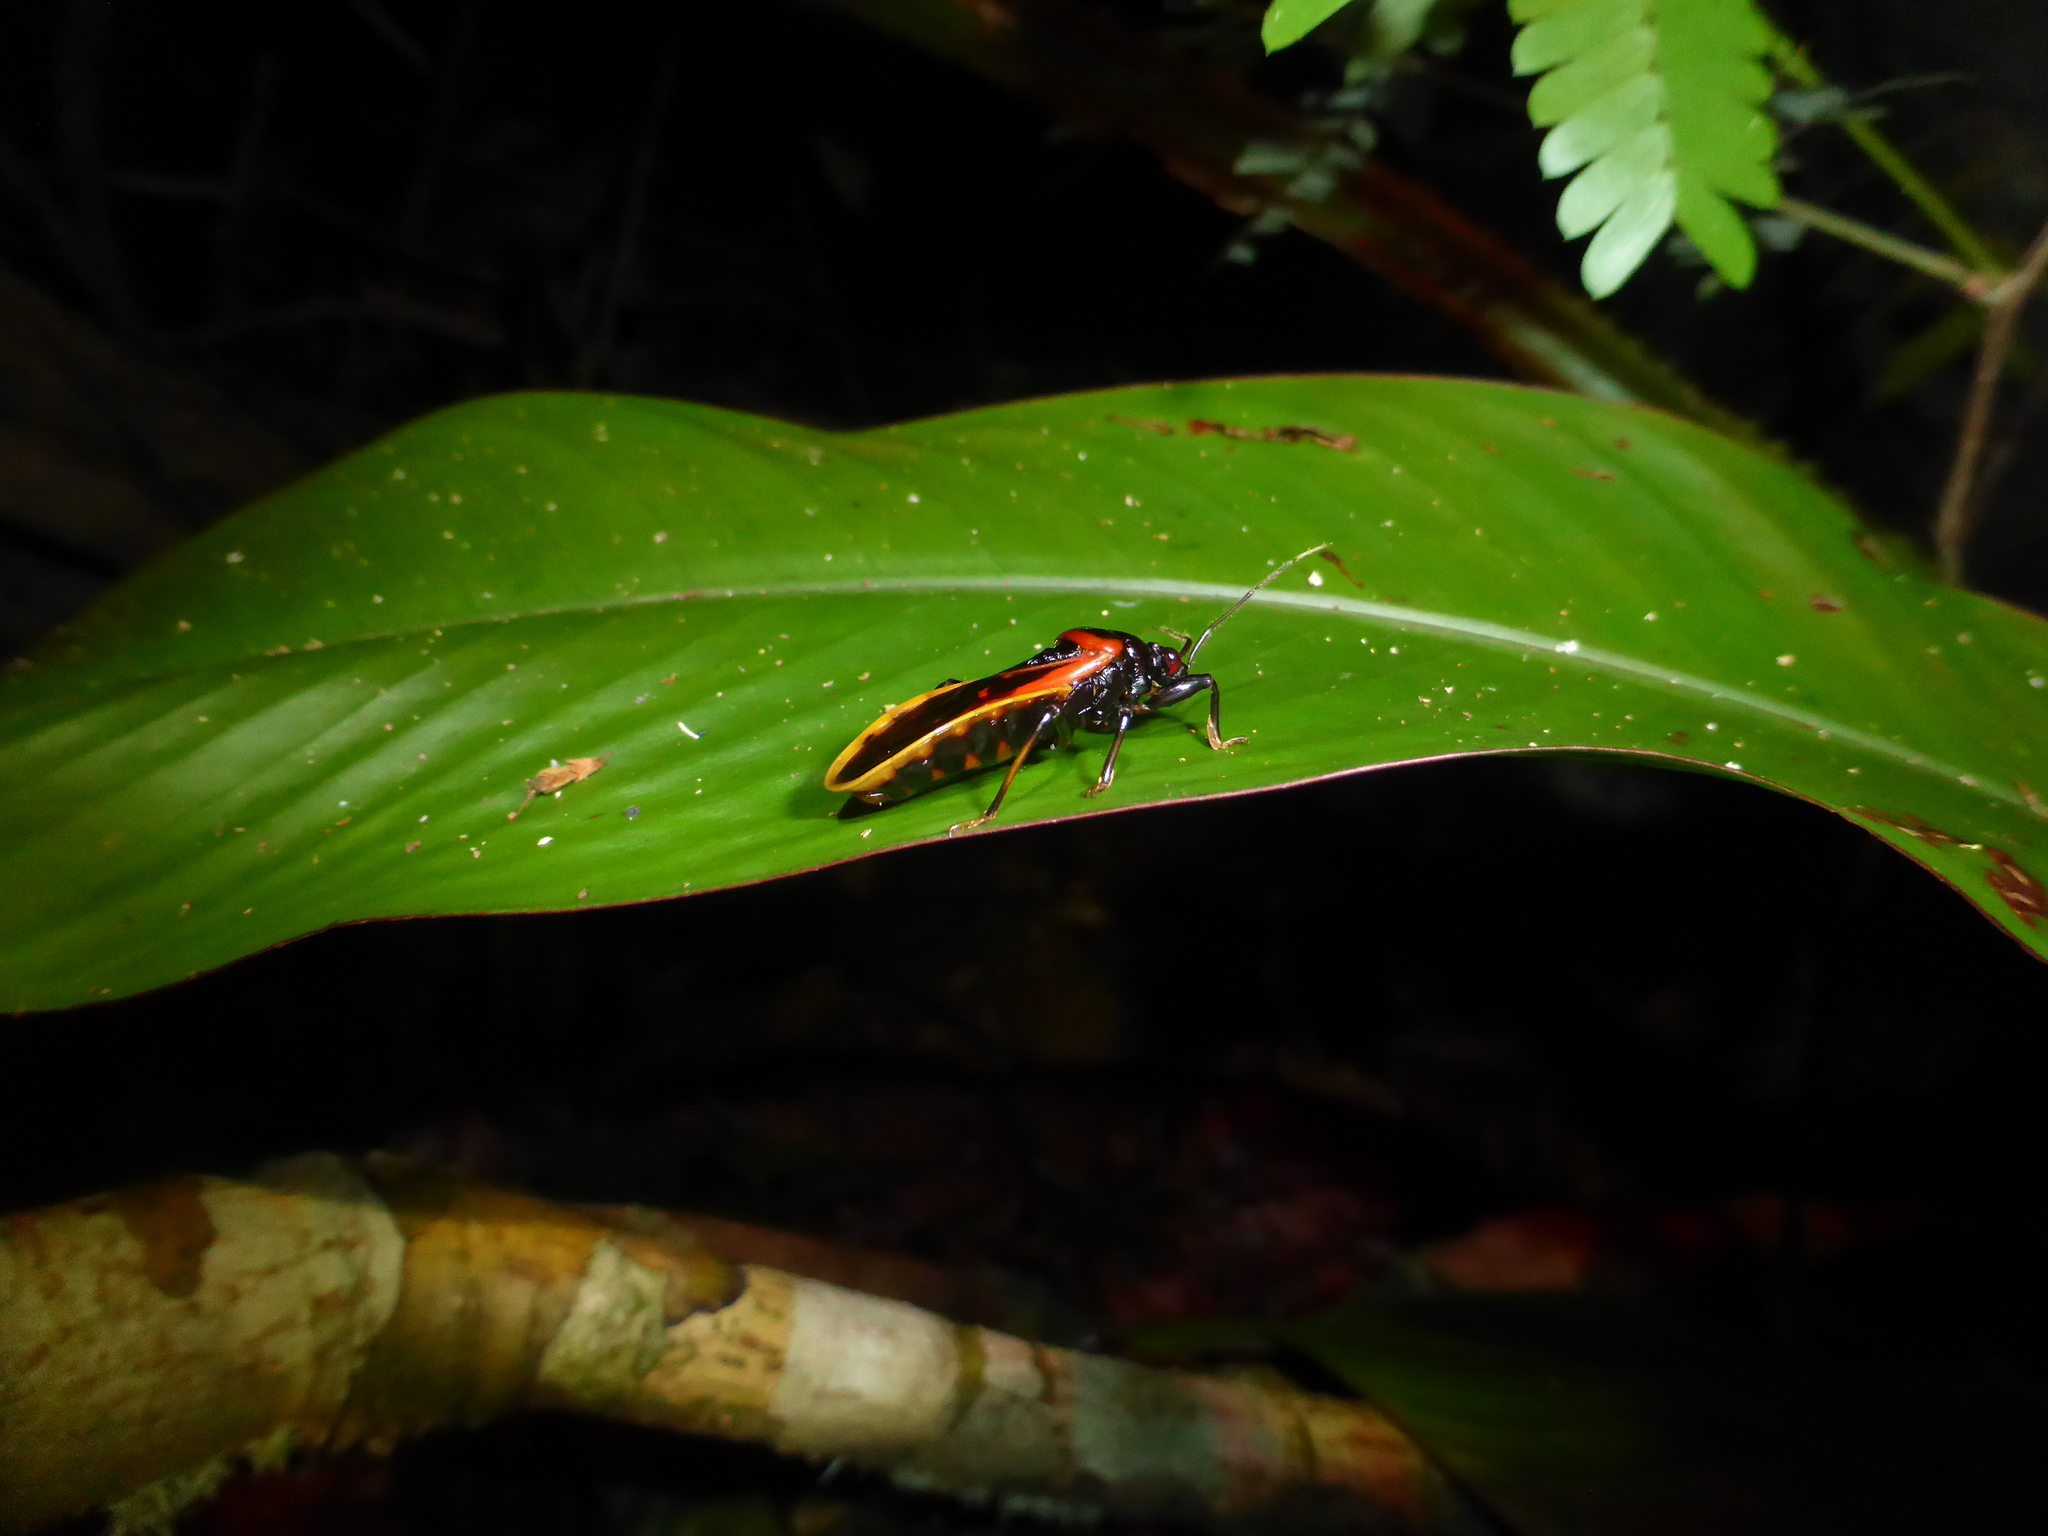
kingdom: Animalia
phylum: Arthropoda
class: Insecta
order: Hemiptera
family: Reduviidae
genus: Brontostoma
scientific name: Brontostoma basale
